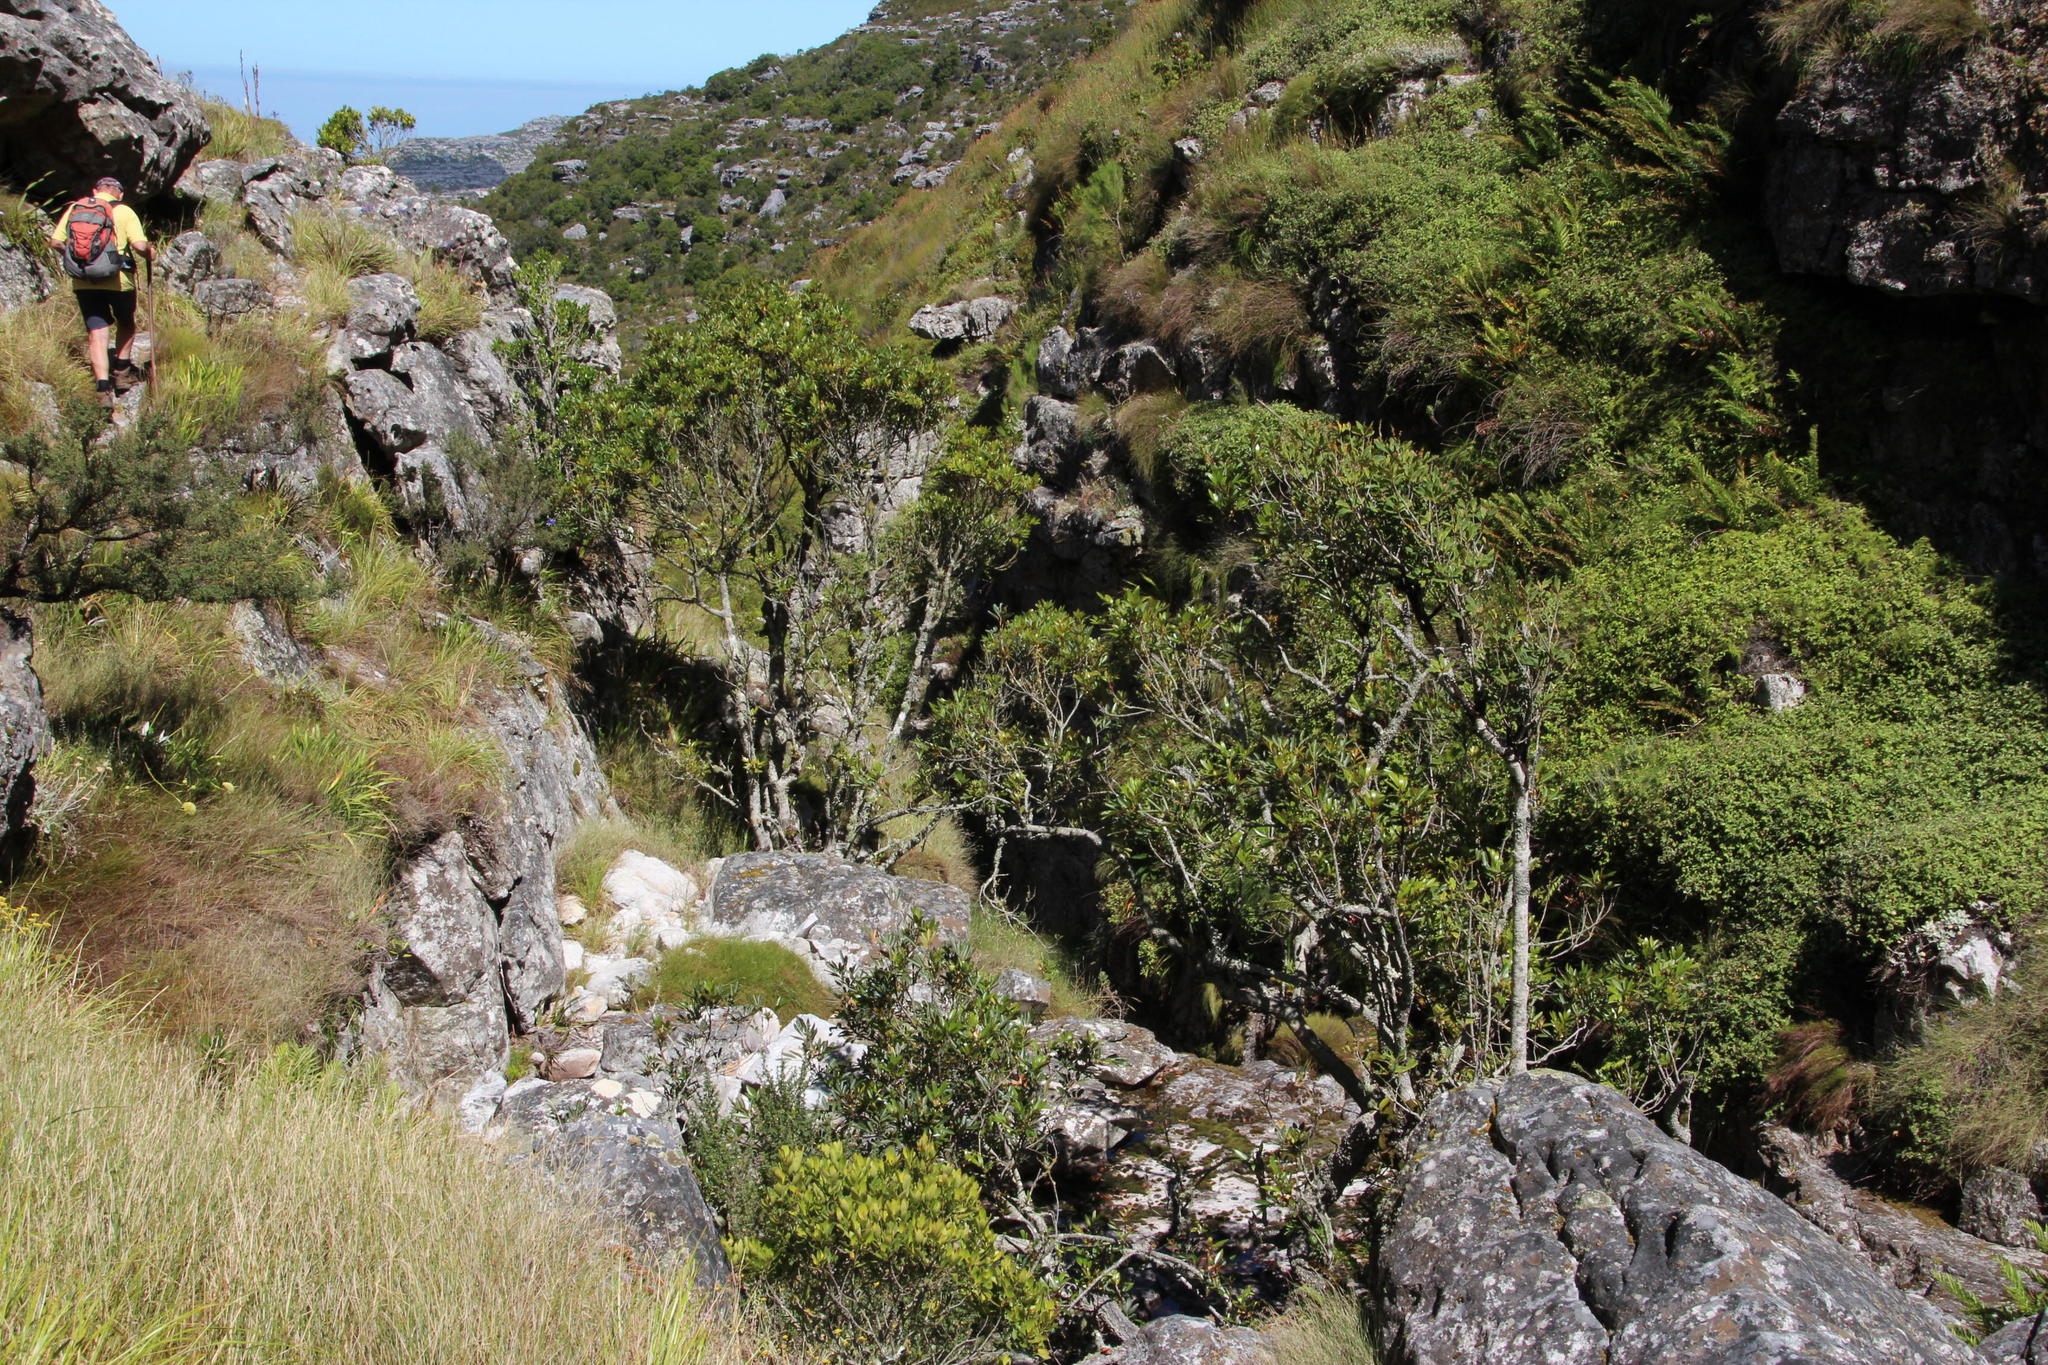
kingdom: Plantae
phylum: Tracheophyta
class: Magnoliopsida
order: Celastrales
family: Celastraceae
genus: Elaeodendron
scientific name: Elaeodendron schinoides
